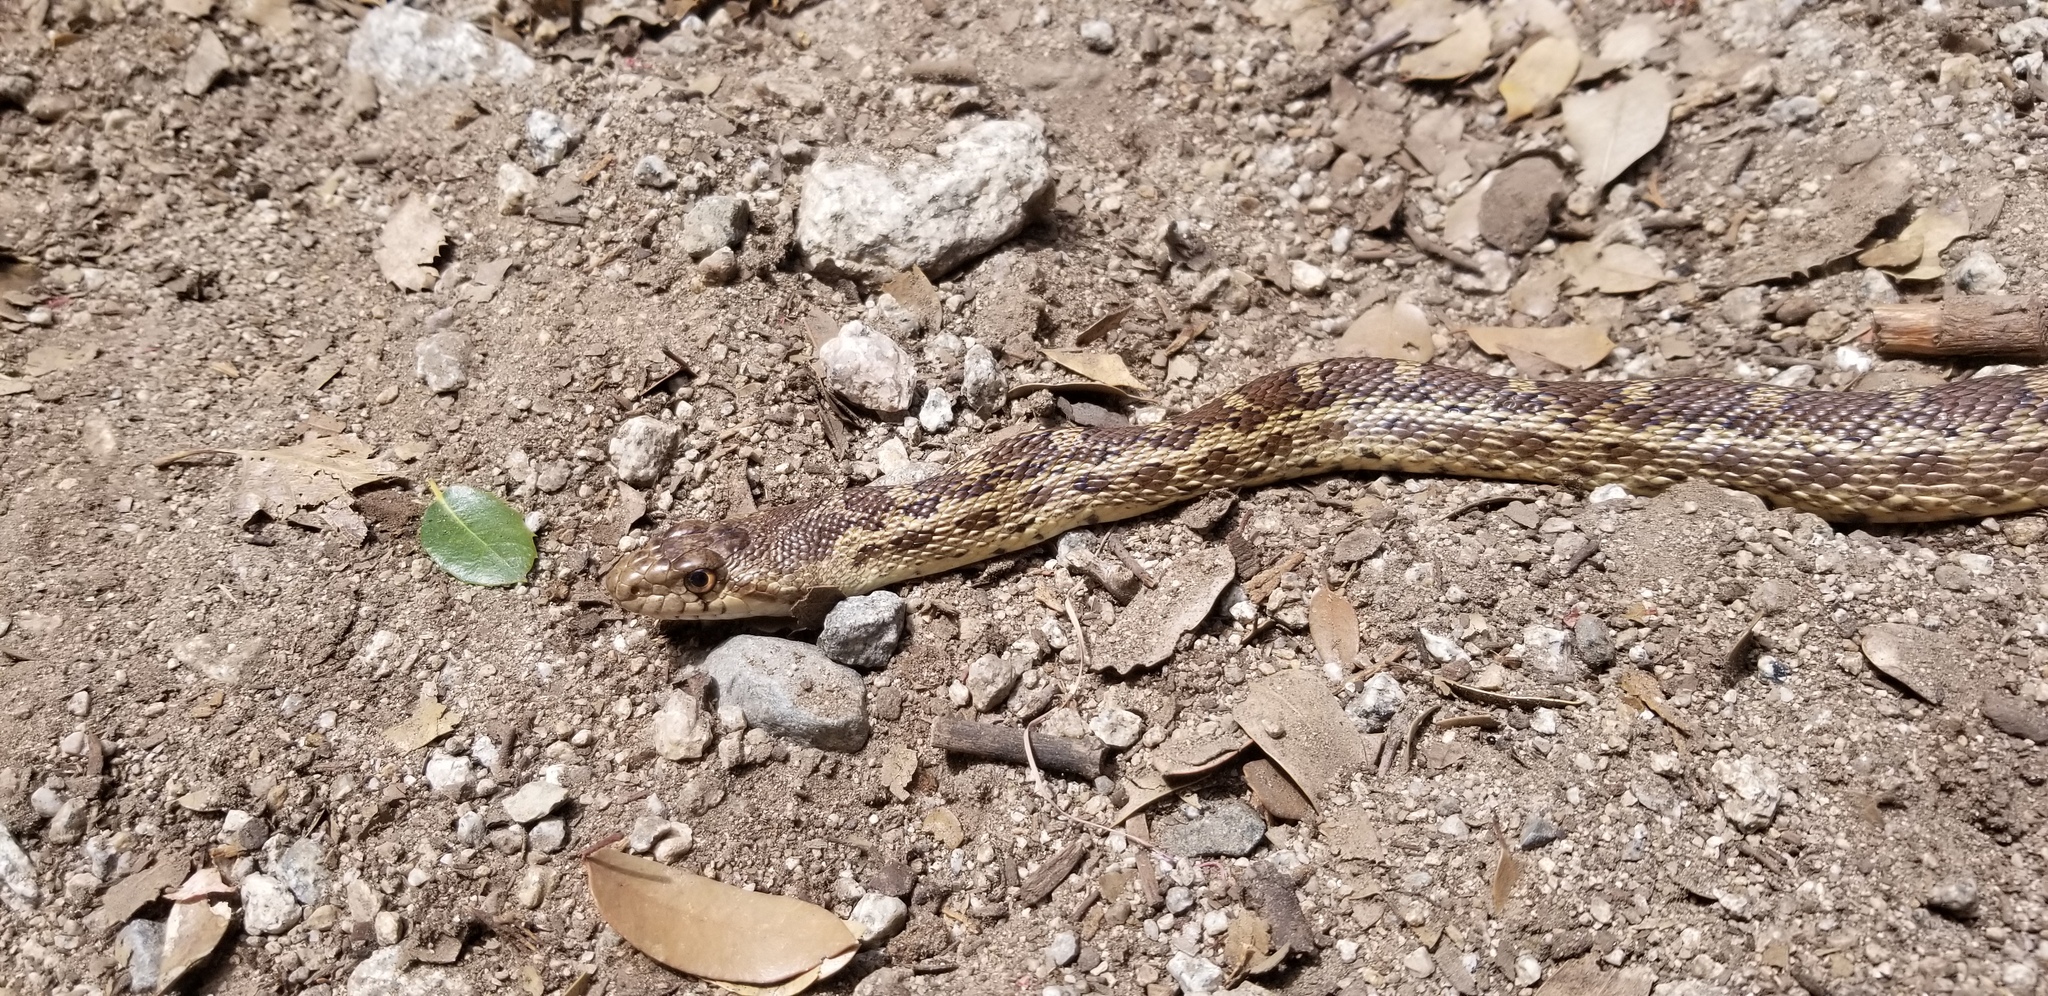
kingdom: Animalia
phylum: Chordata
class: Squamata
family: Colubridae
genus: Pituophis
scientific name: Pituophis catenifer
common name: Gopher snake
